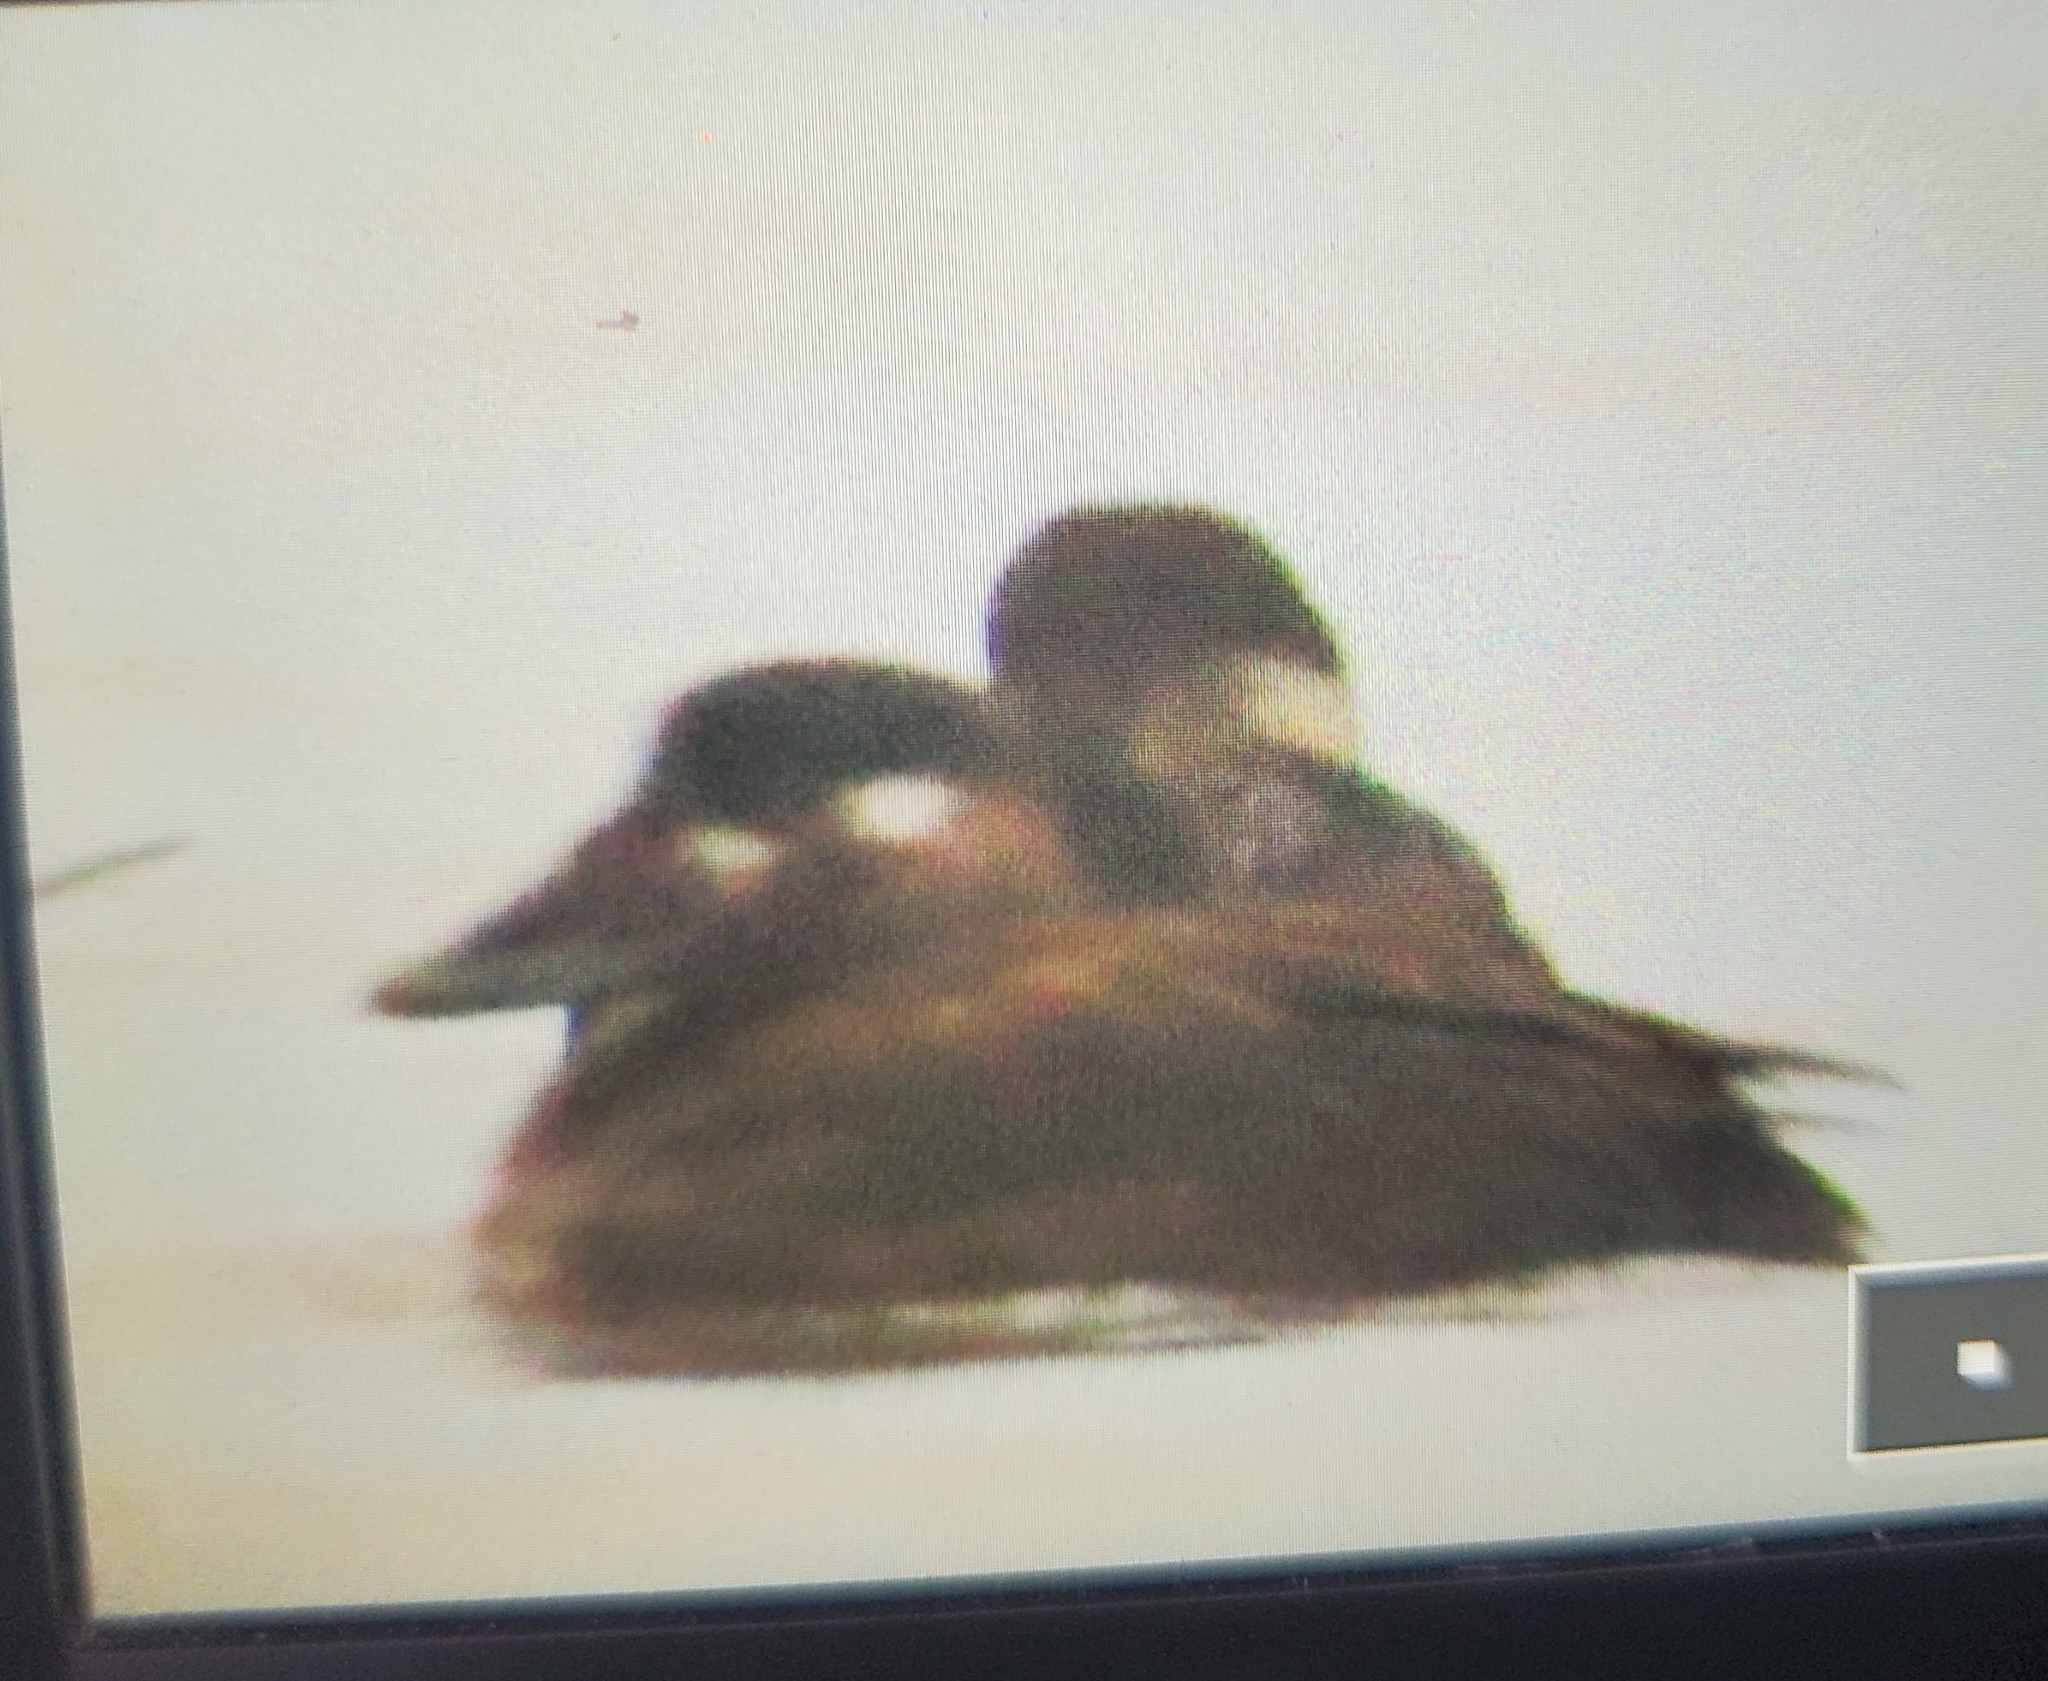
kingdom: Animalia
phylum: Chordata
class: Aves
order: Anseriformes
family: Anatidae
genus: Melanitta
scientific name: Melanitta perspicillata
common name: Surf scoter
